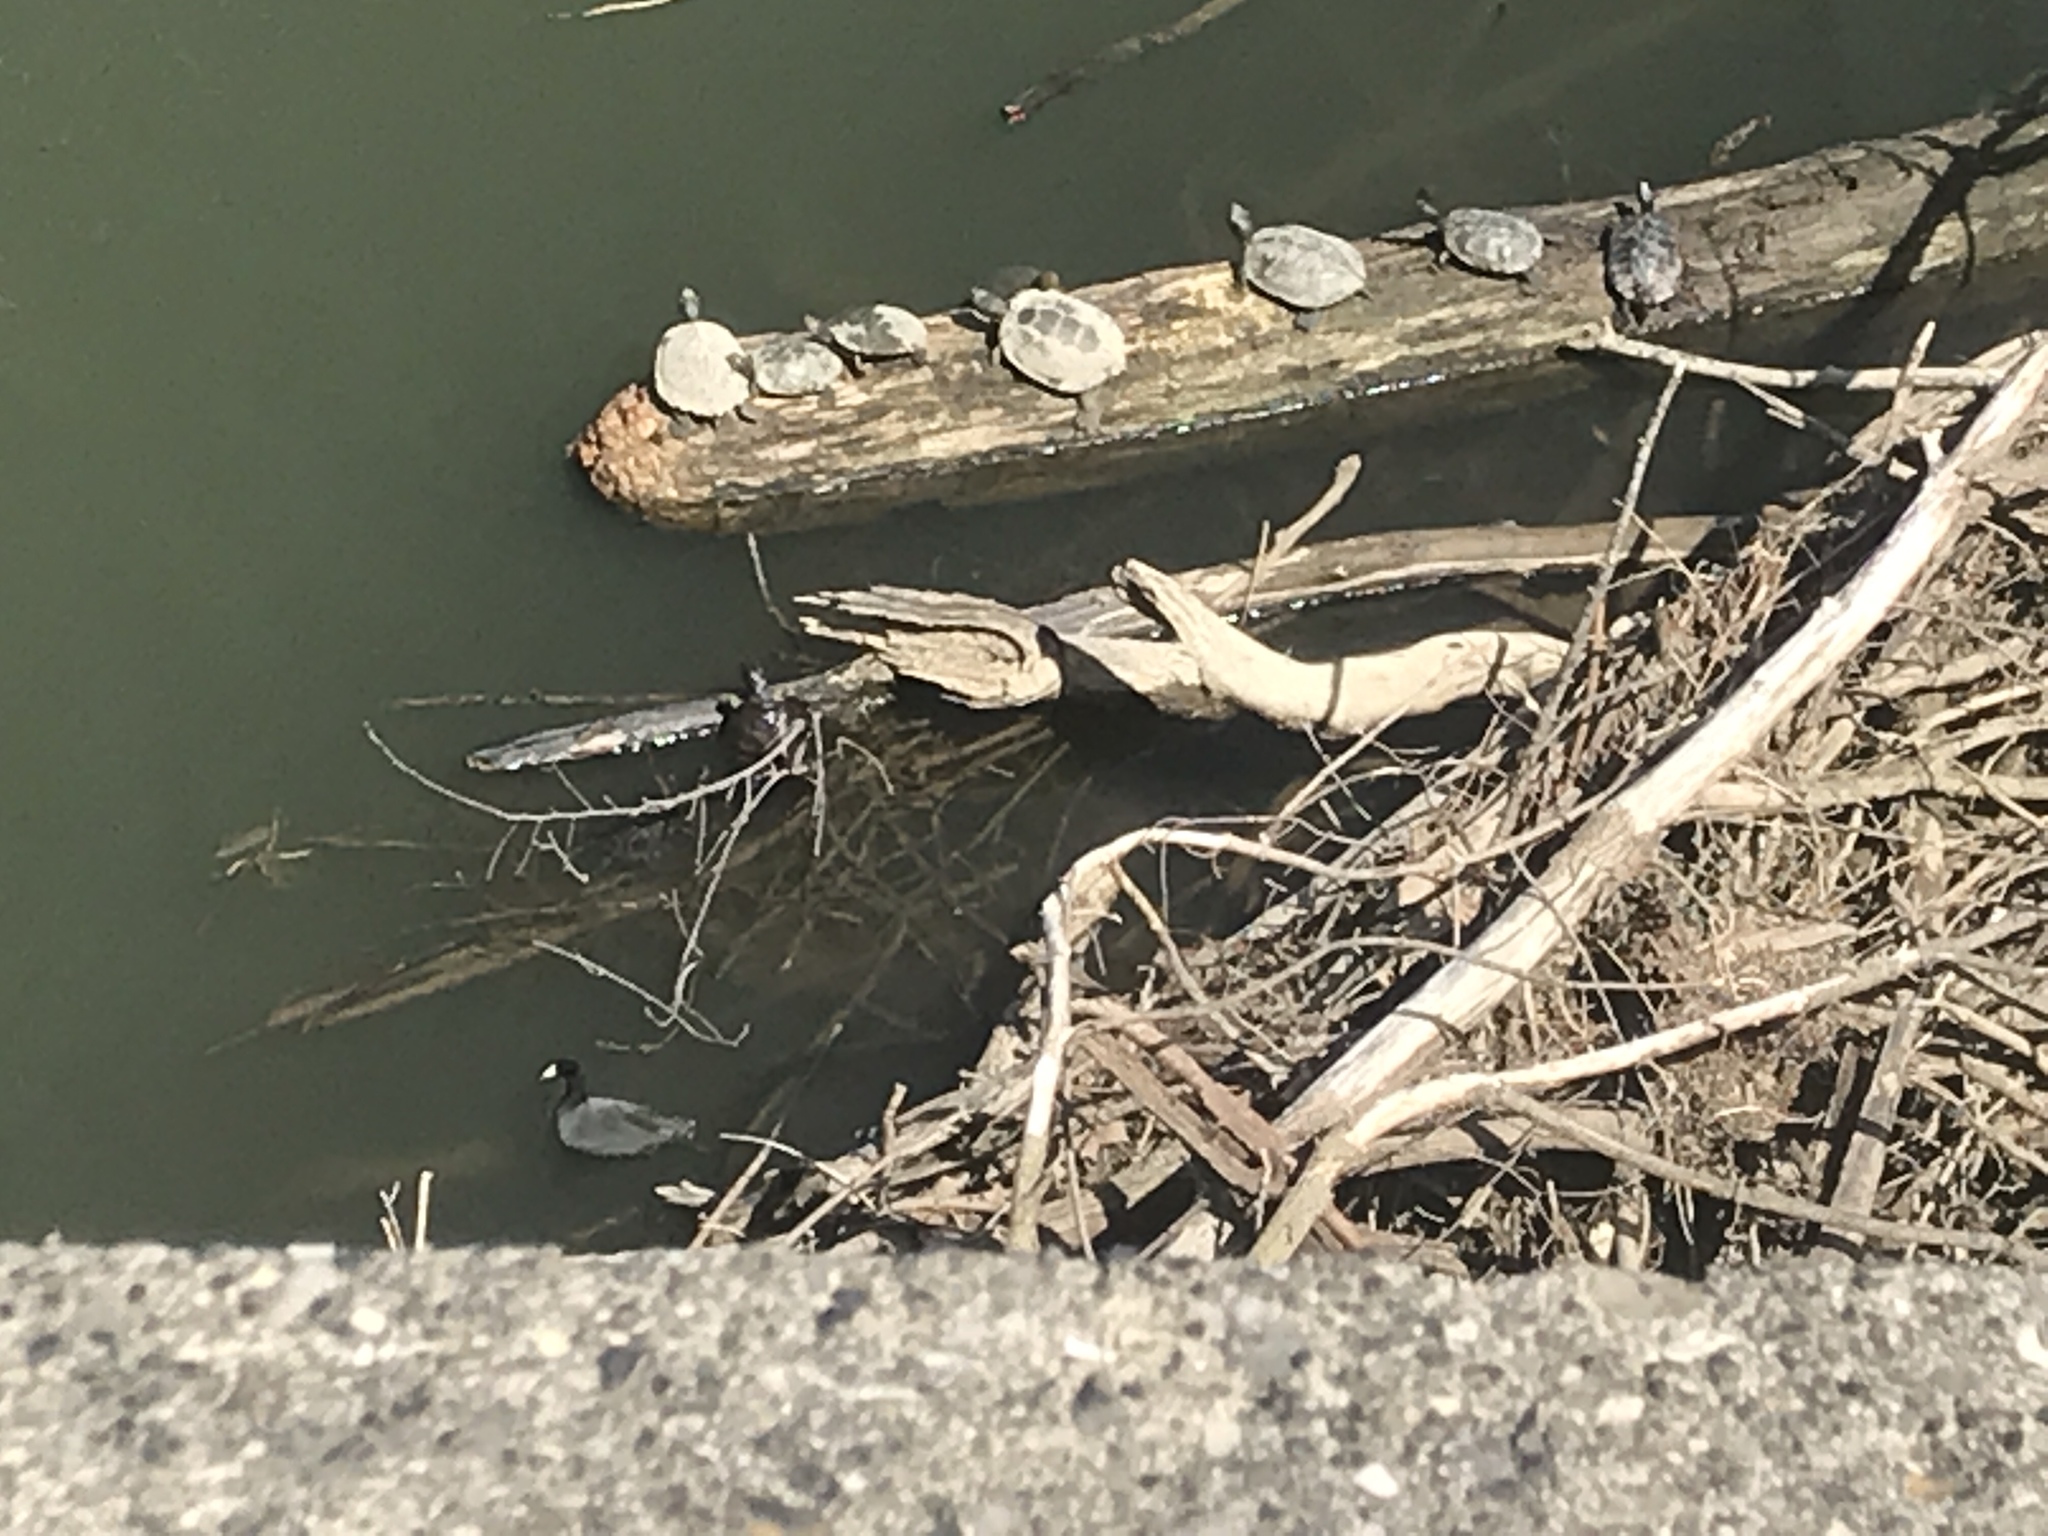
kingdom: Animalia
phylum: Chordata
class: Aves
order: Gruiformes
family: Rallidae
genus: Fulica
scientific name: Fulica americana
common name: American coot
